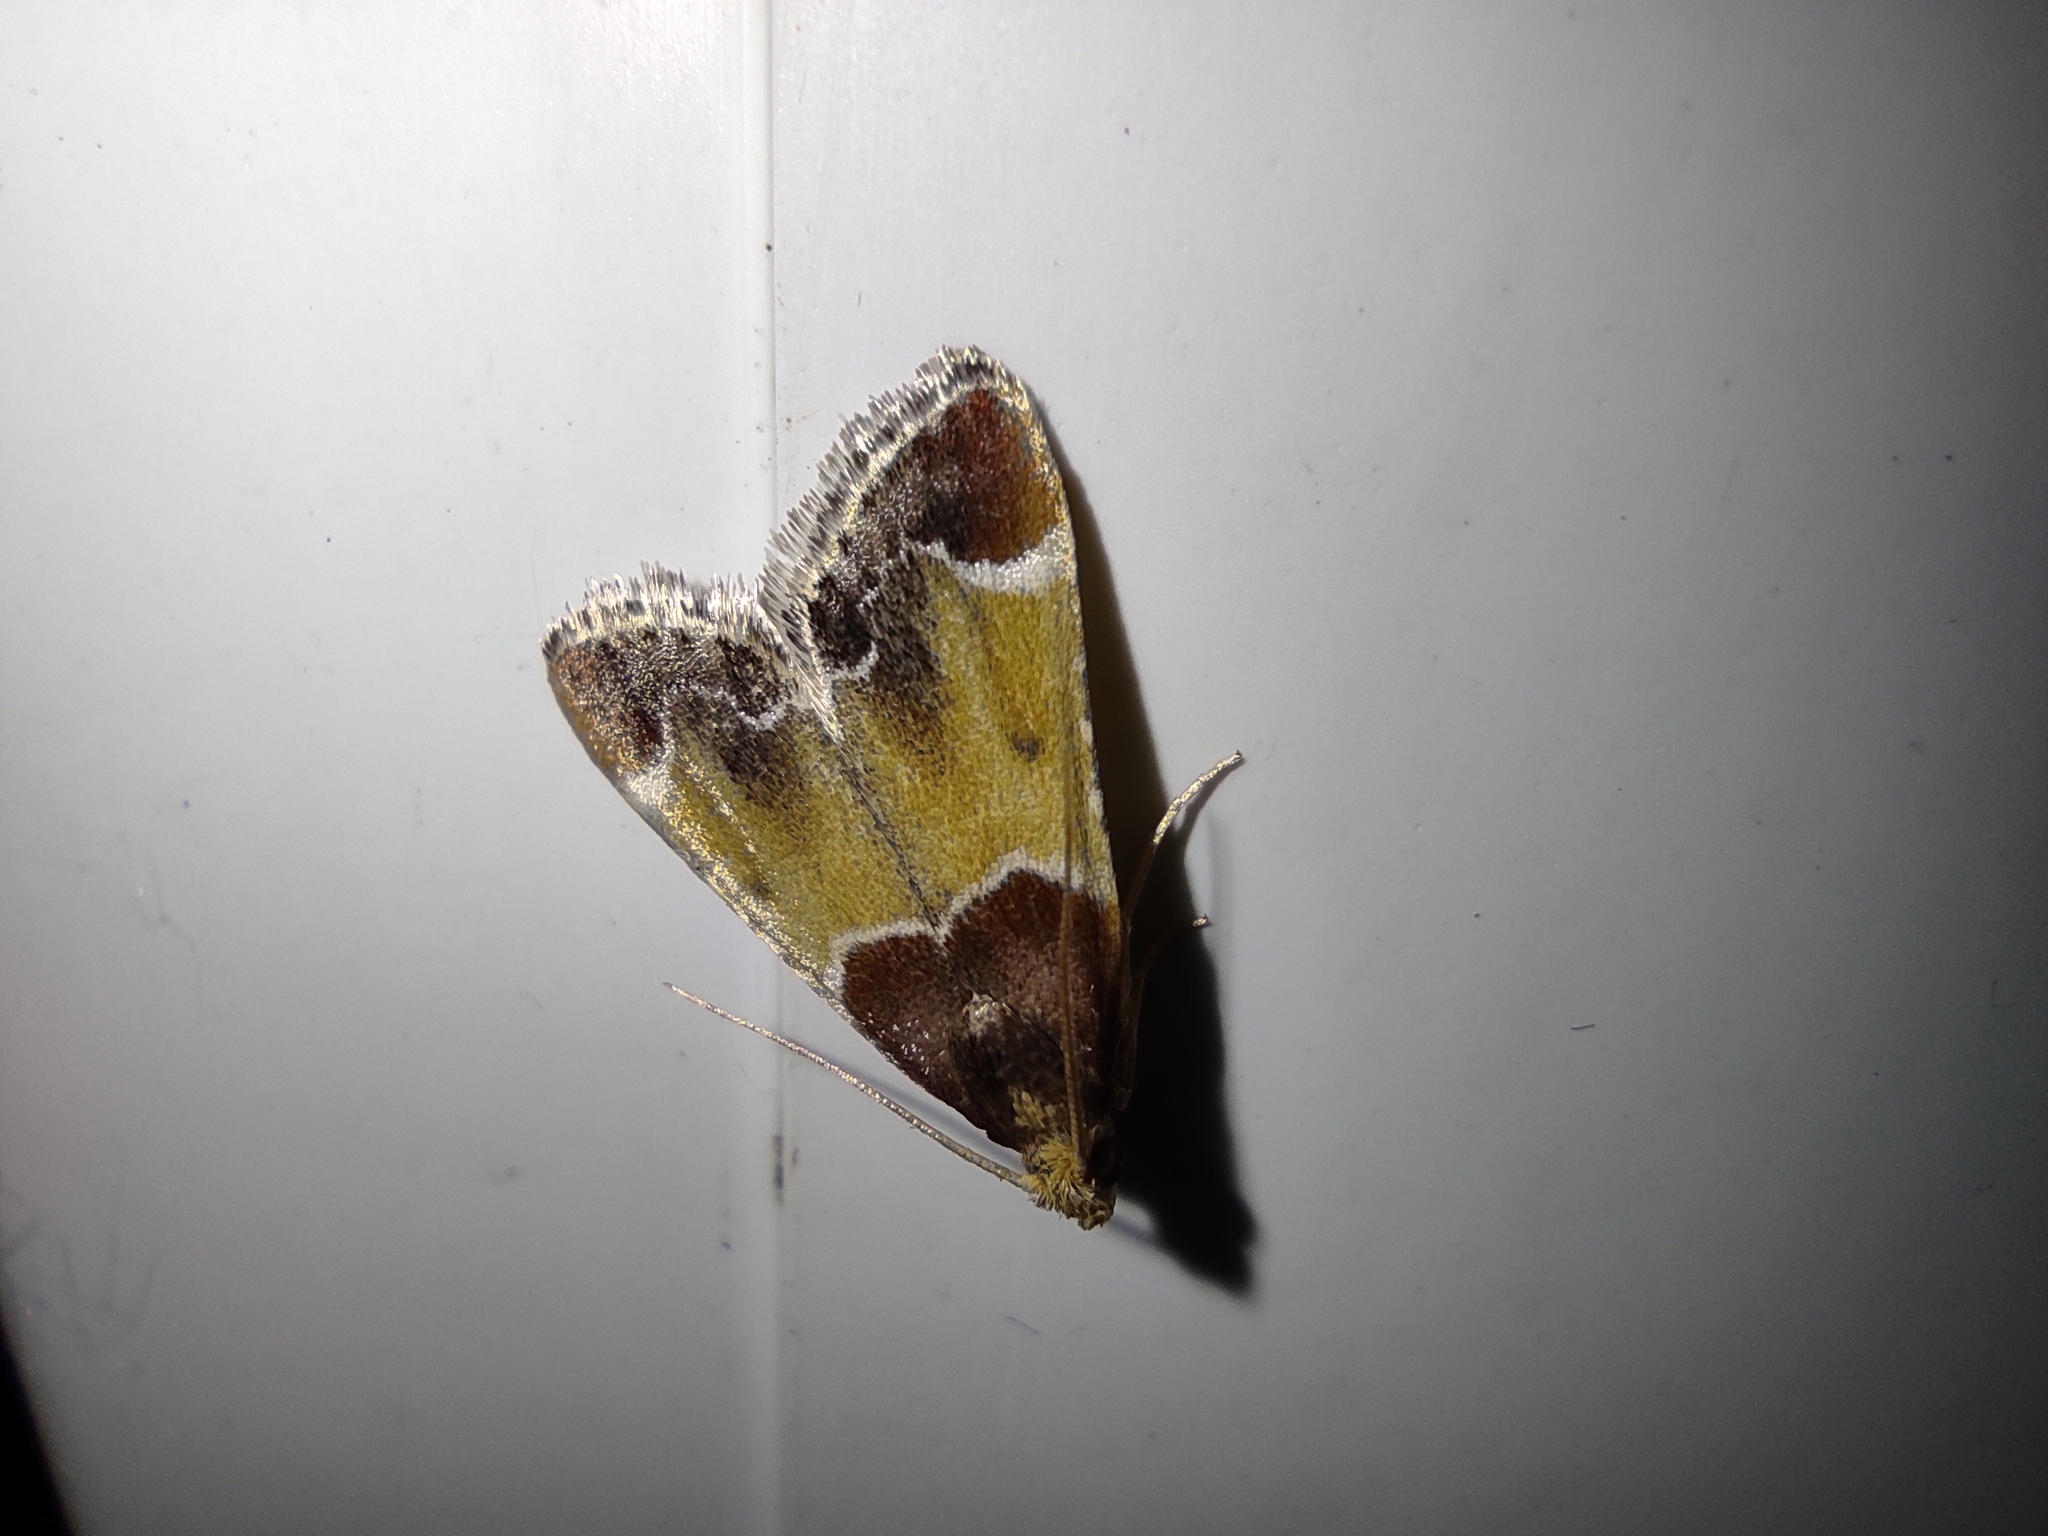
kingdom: Animalia
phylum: Arthropoda
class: Insecta
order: Lepidoptera
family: Pyralidae
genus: Pyralis
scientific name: Pyralis farinalis
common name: Meal moth
